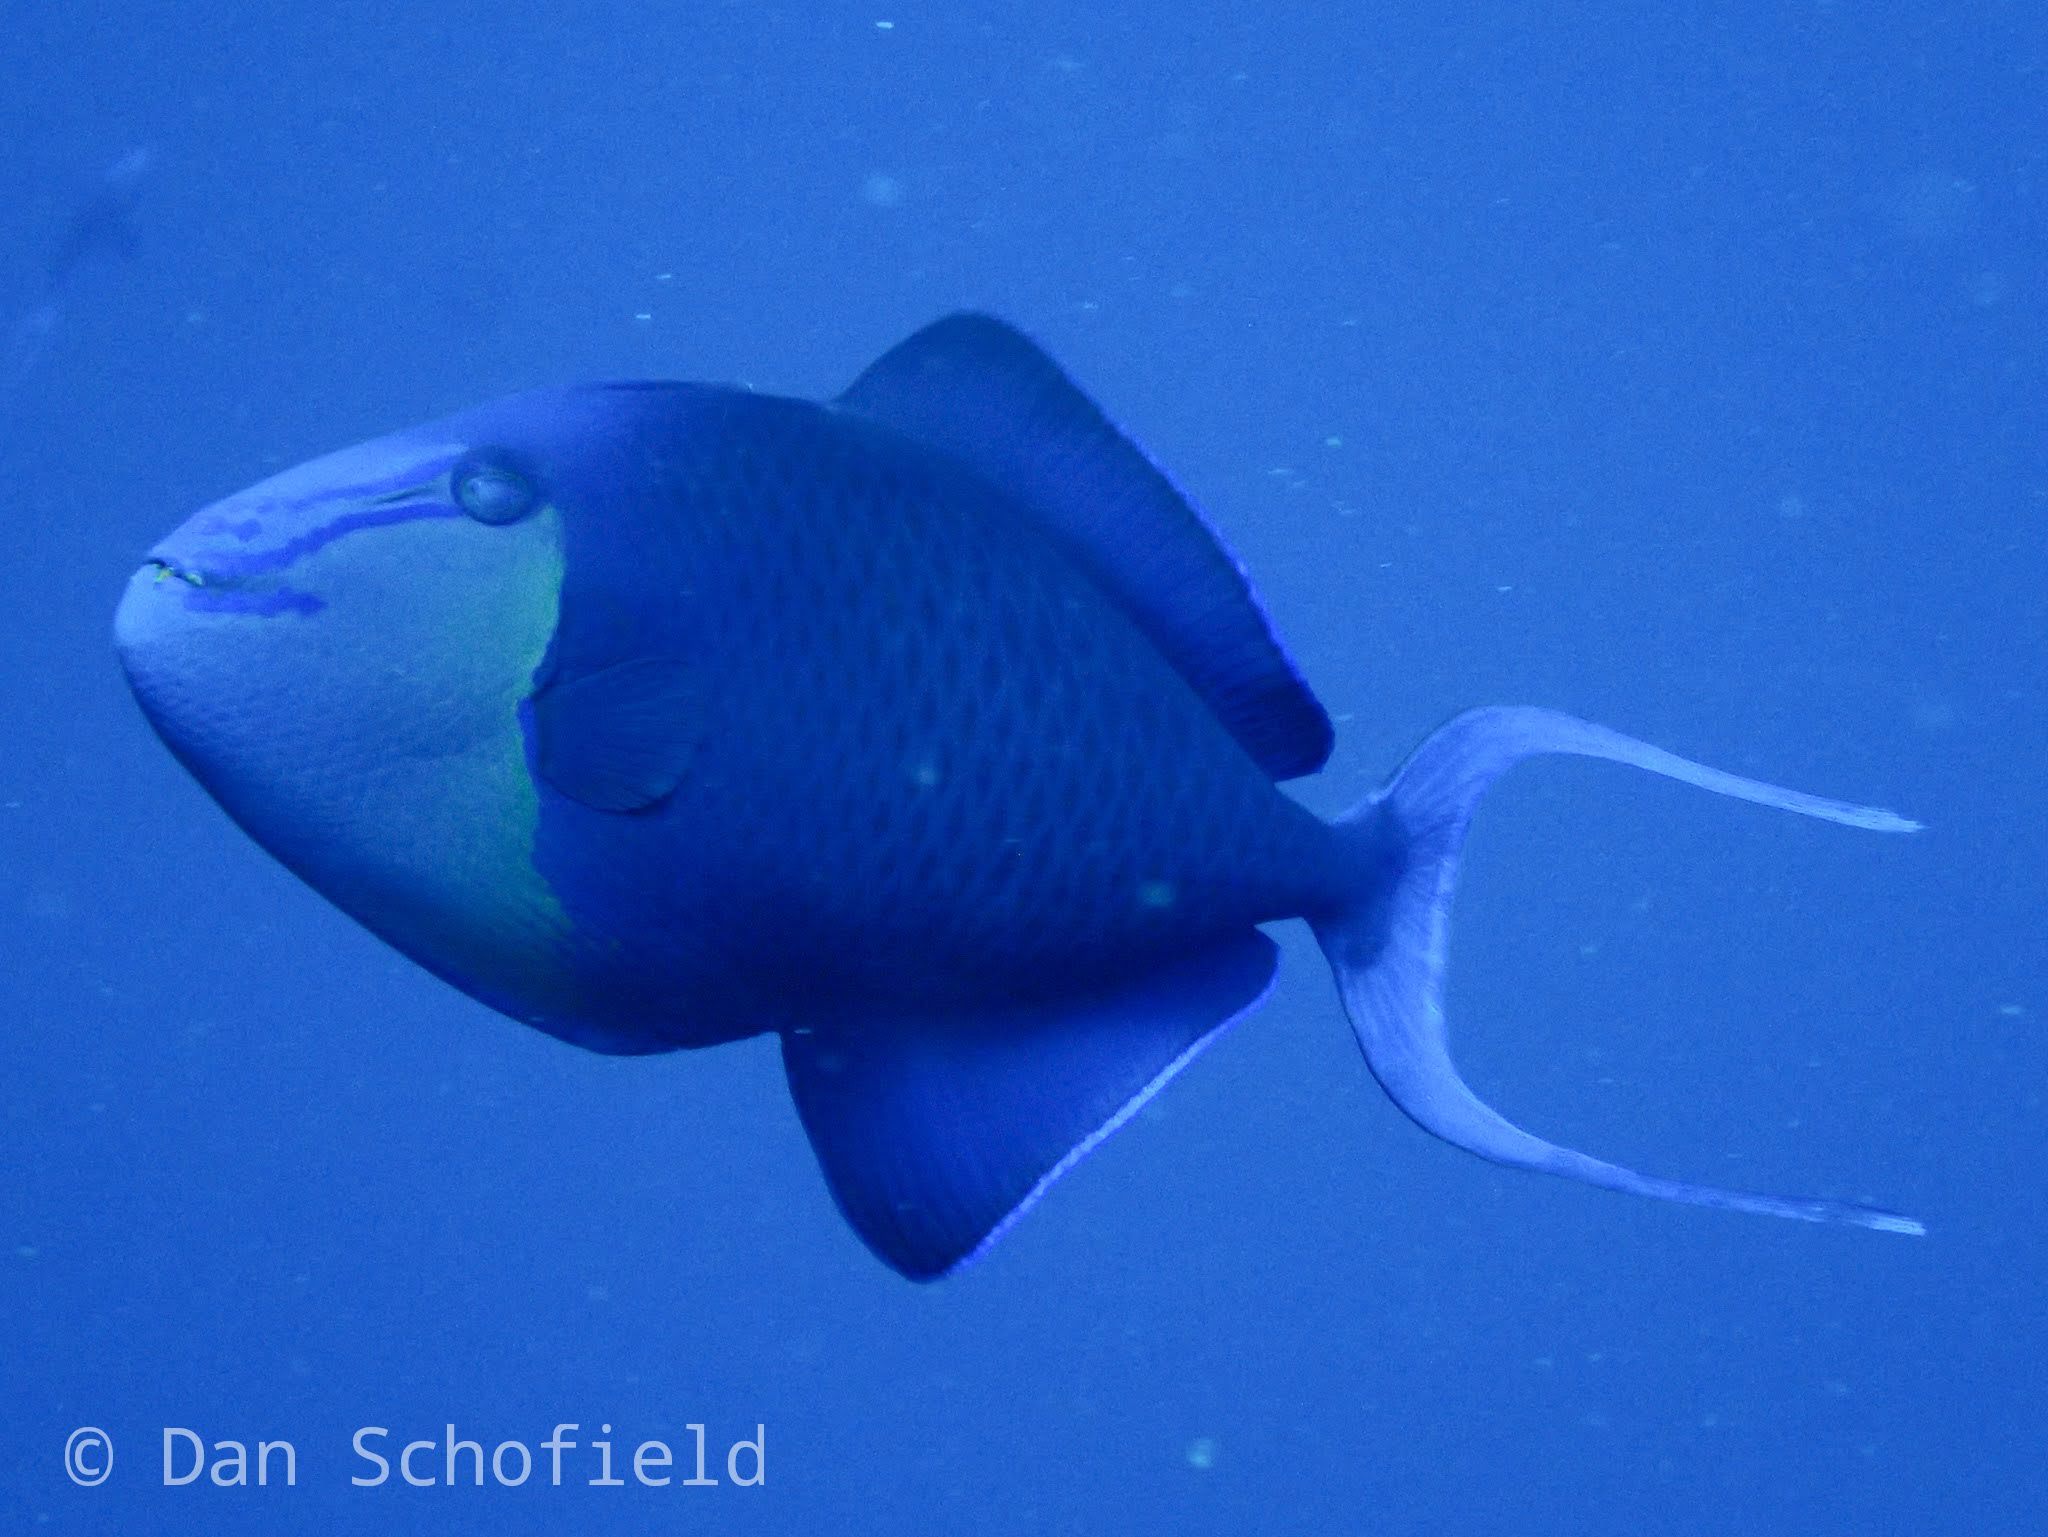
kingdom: Animalia
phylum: Chordata
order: Tetraodontiformes
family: Balistidae
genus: Odonus
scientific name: Odonus niger
